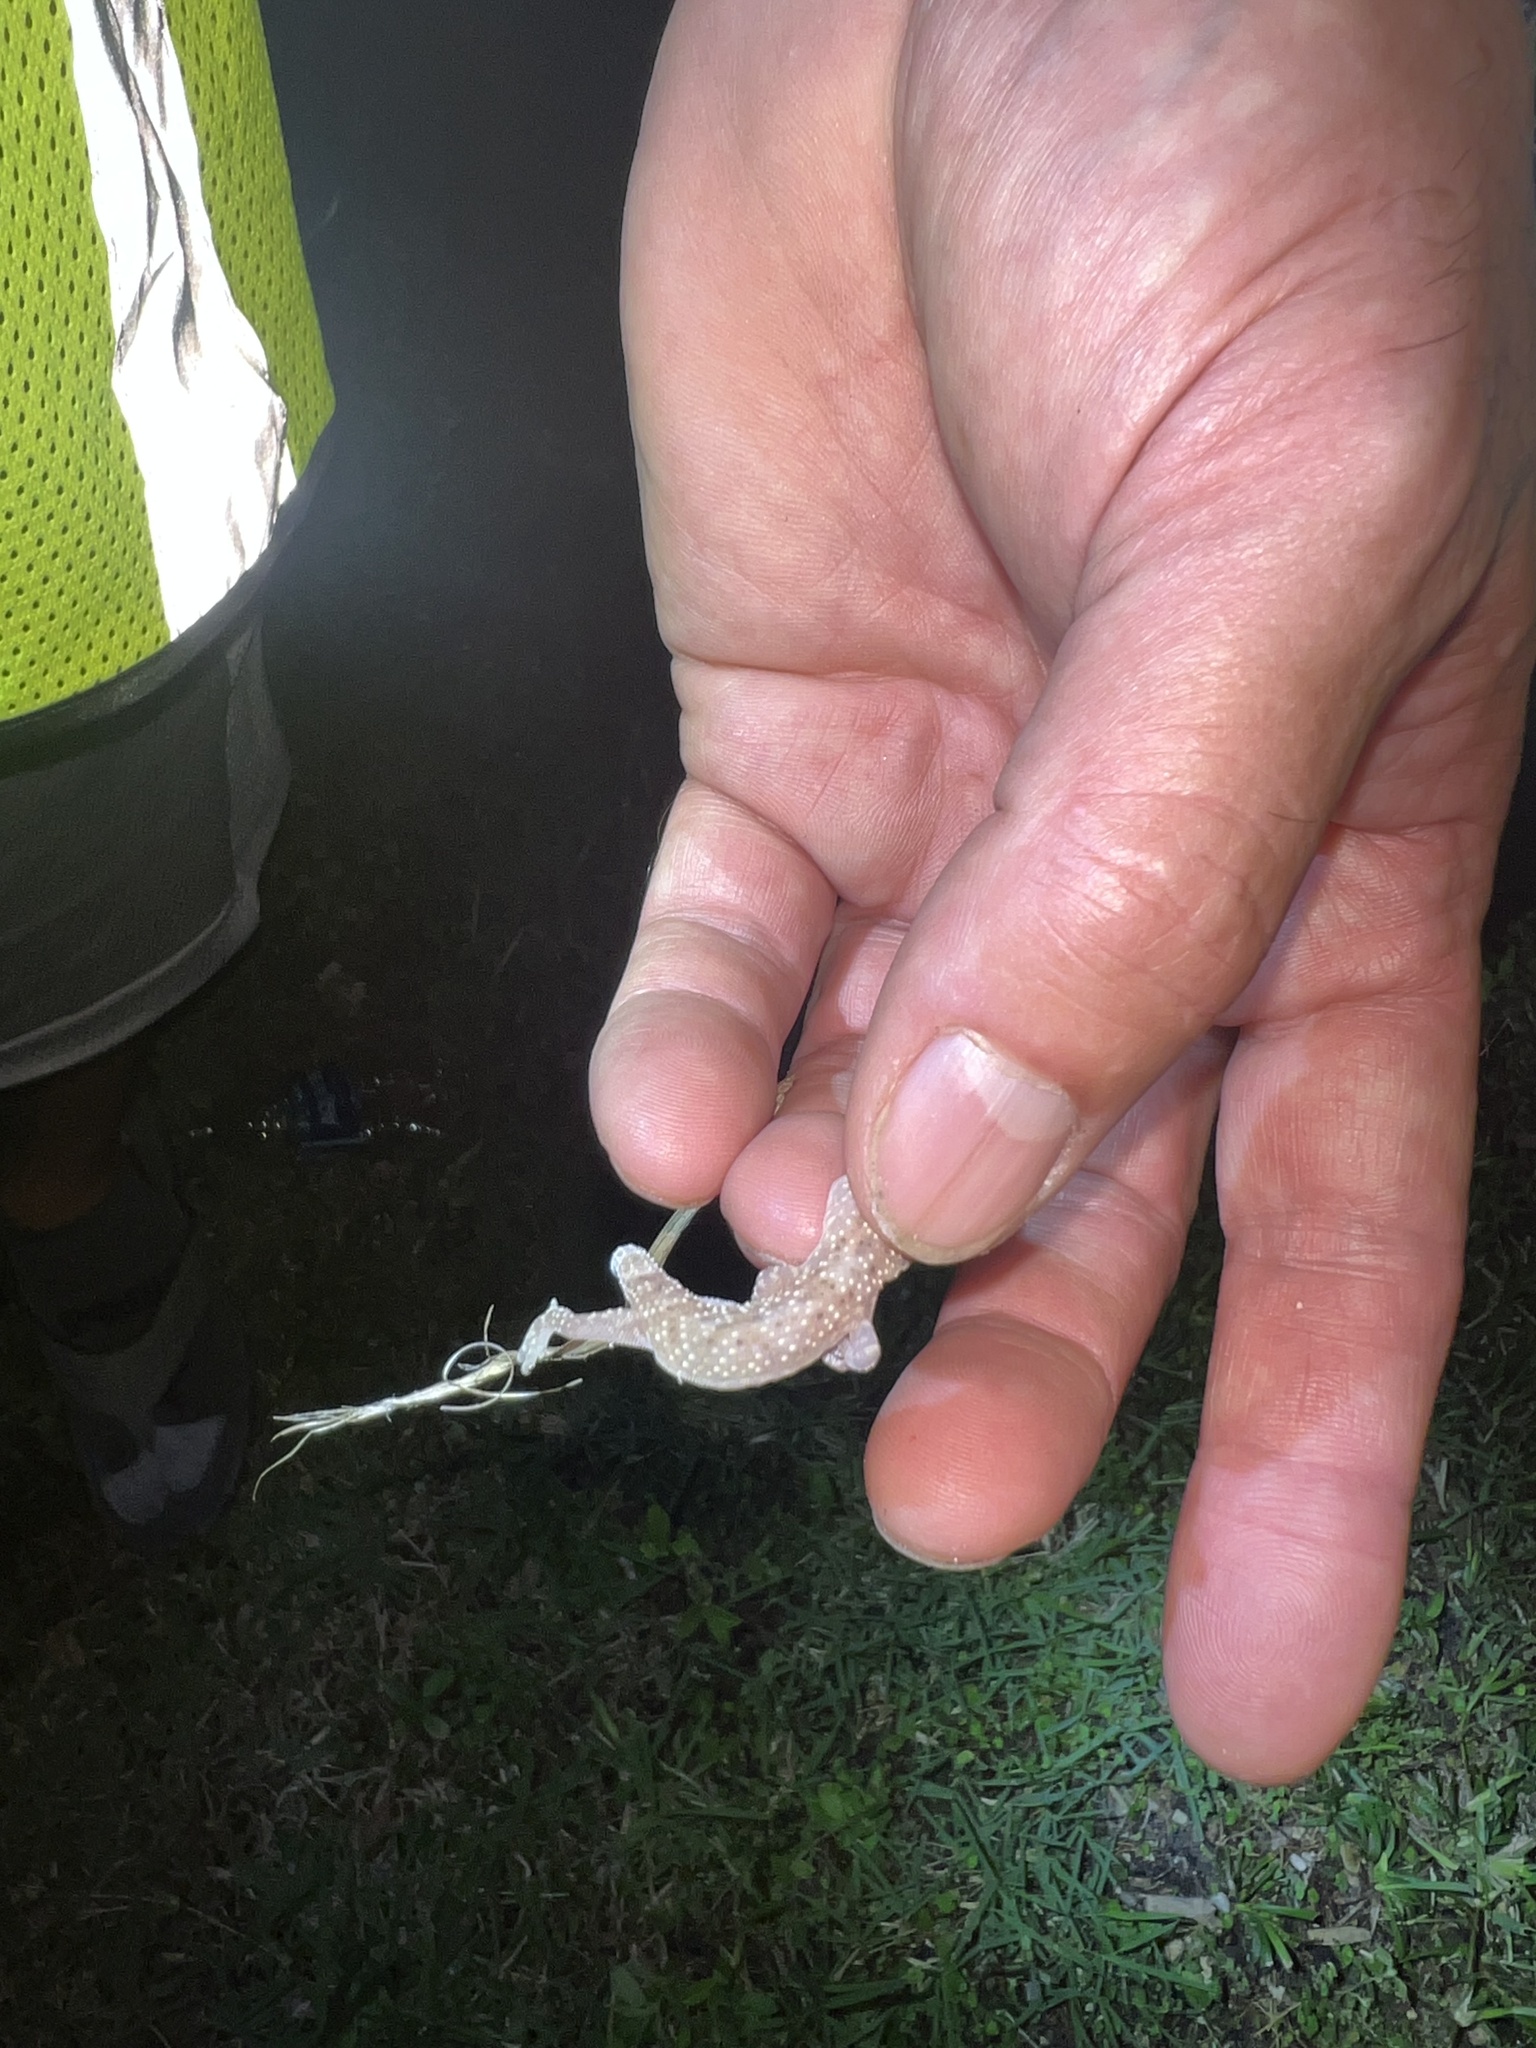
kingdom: Animalia
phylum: Chordata
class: Squamata
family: Gekkonidae
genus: Hemidactylus
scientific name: Hemidactylus turcicus
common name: Turkish gecko
